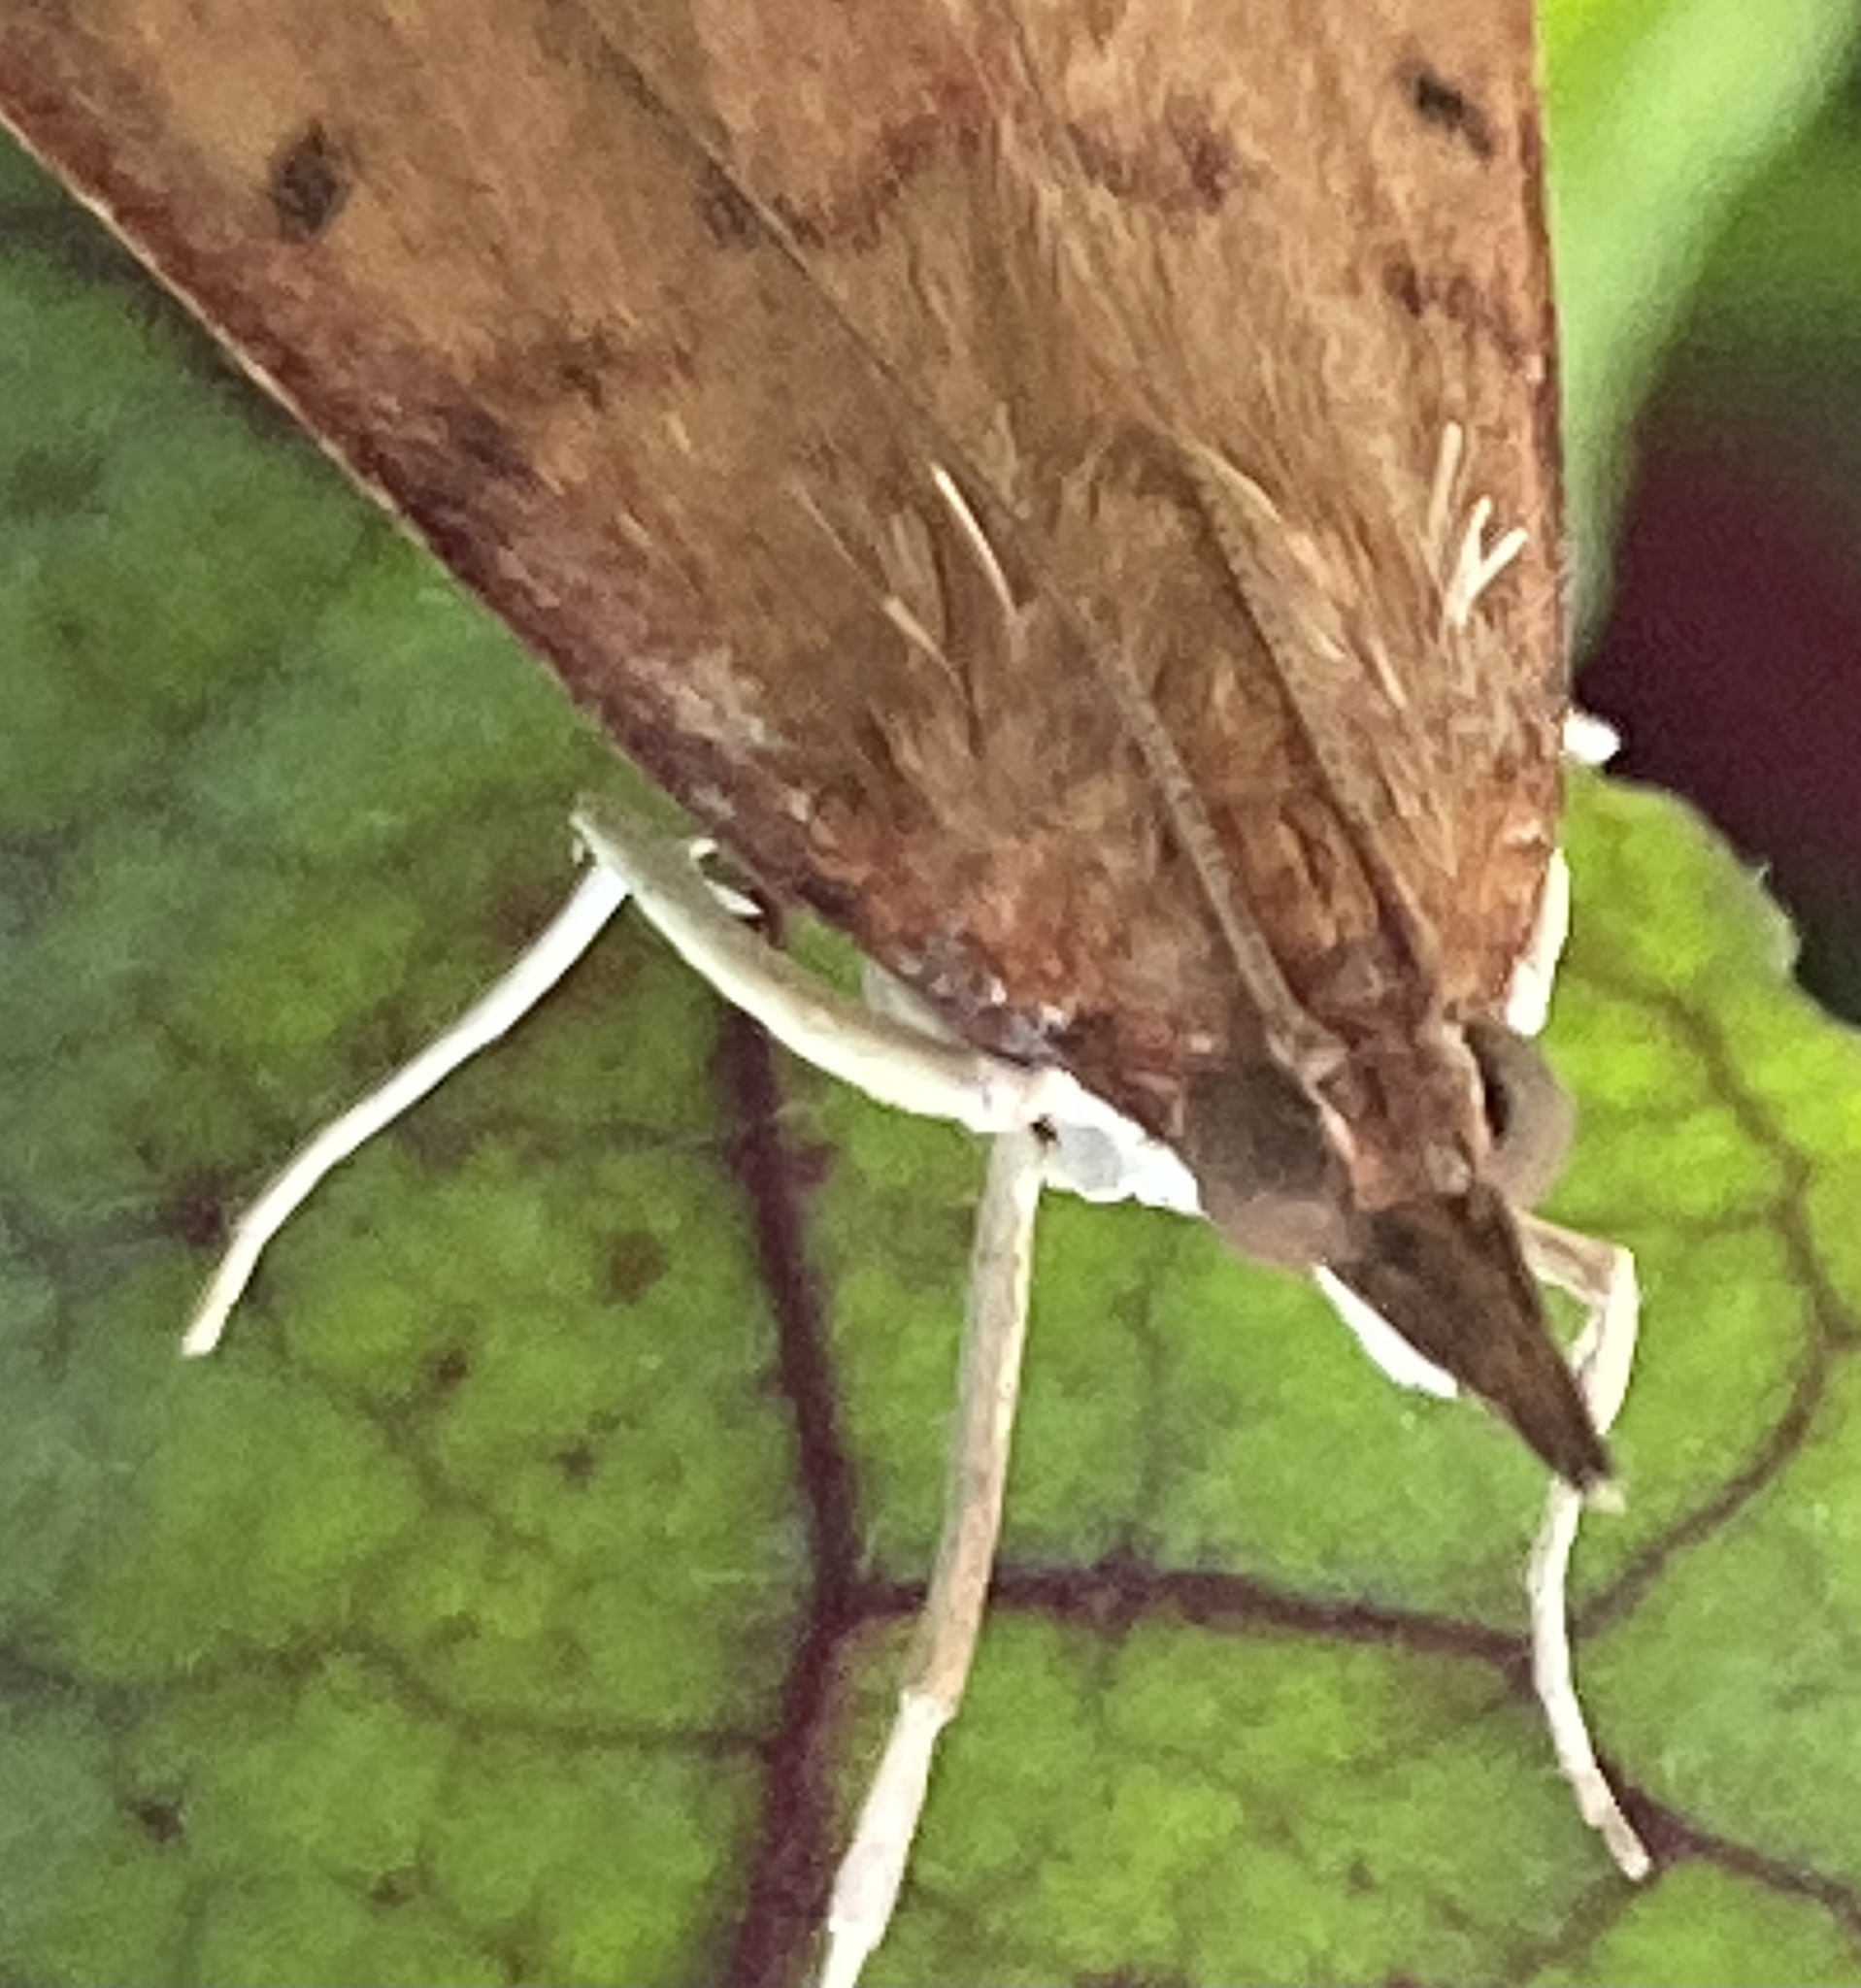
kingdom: Animalia
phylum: Arthropoda
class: Insecta
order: Lepidoptera
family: Crambidae
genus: Uresiphita
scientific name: Uresiphita reversalis
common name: Genista broom moth
